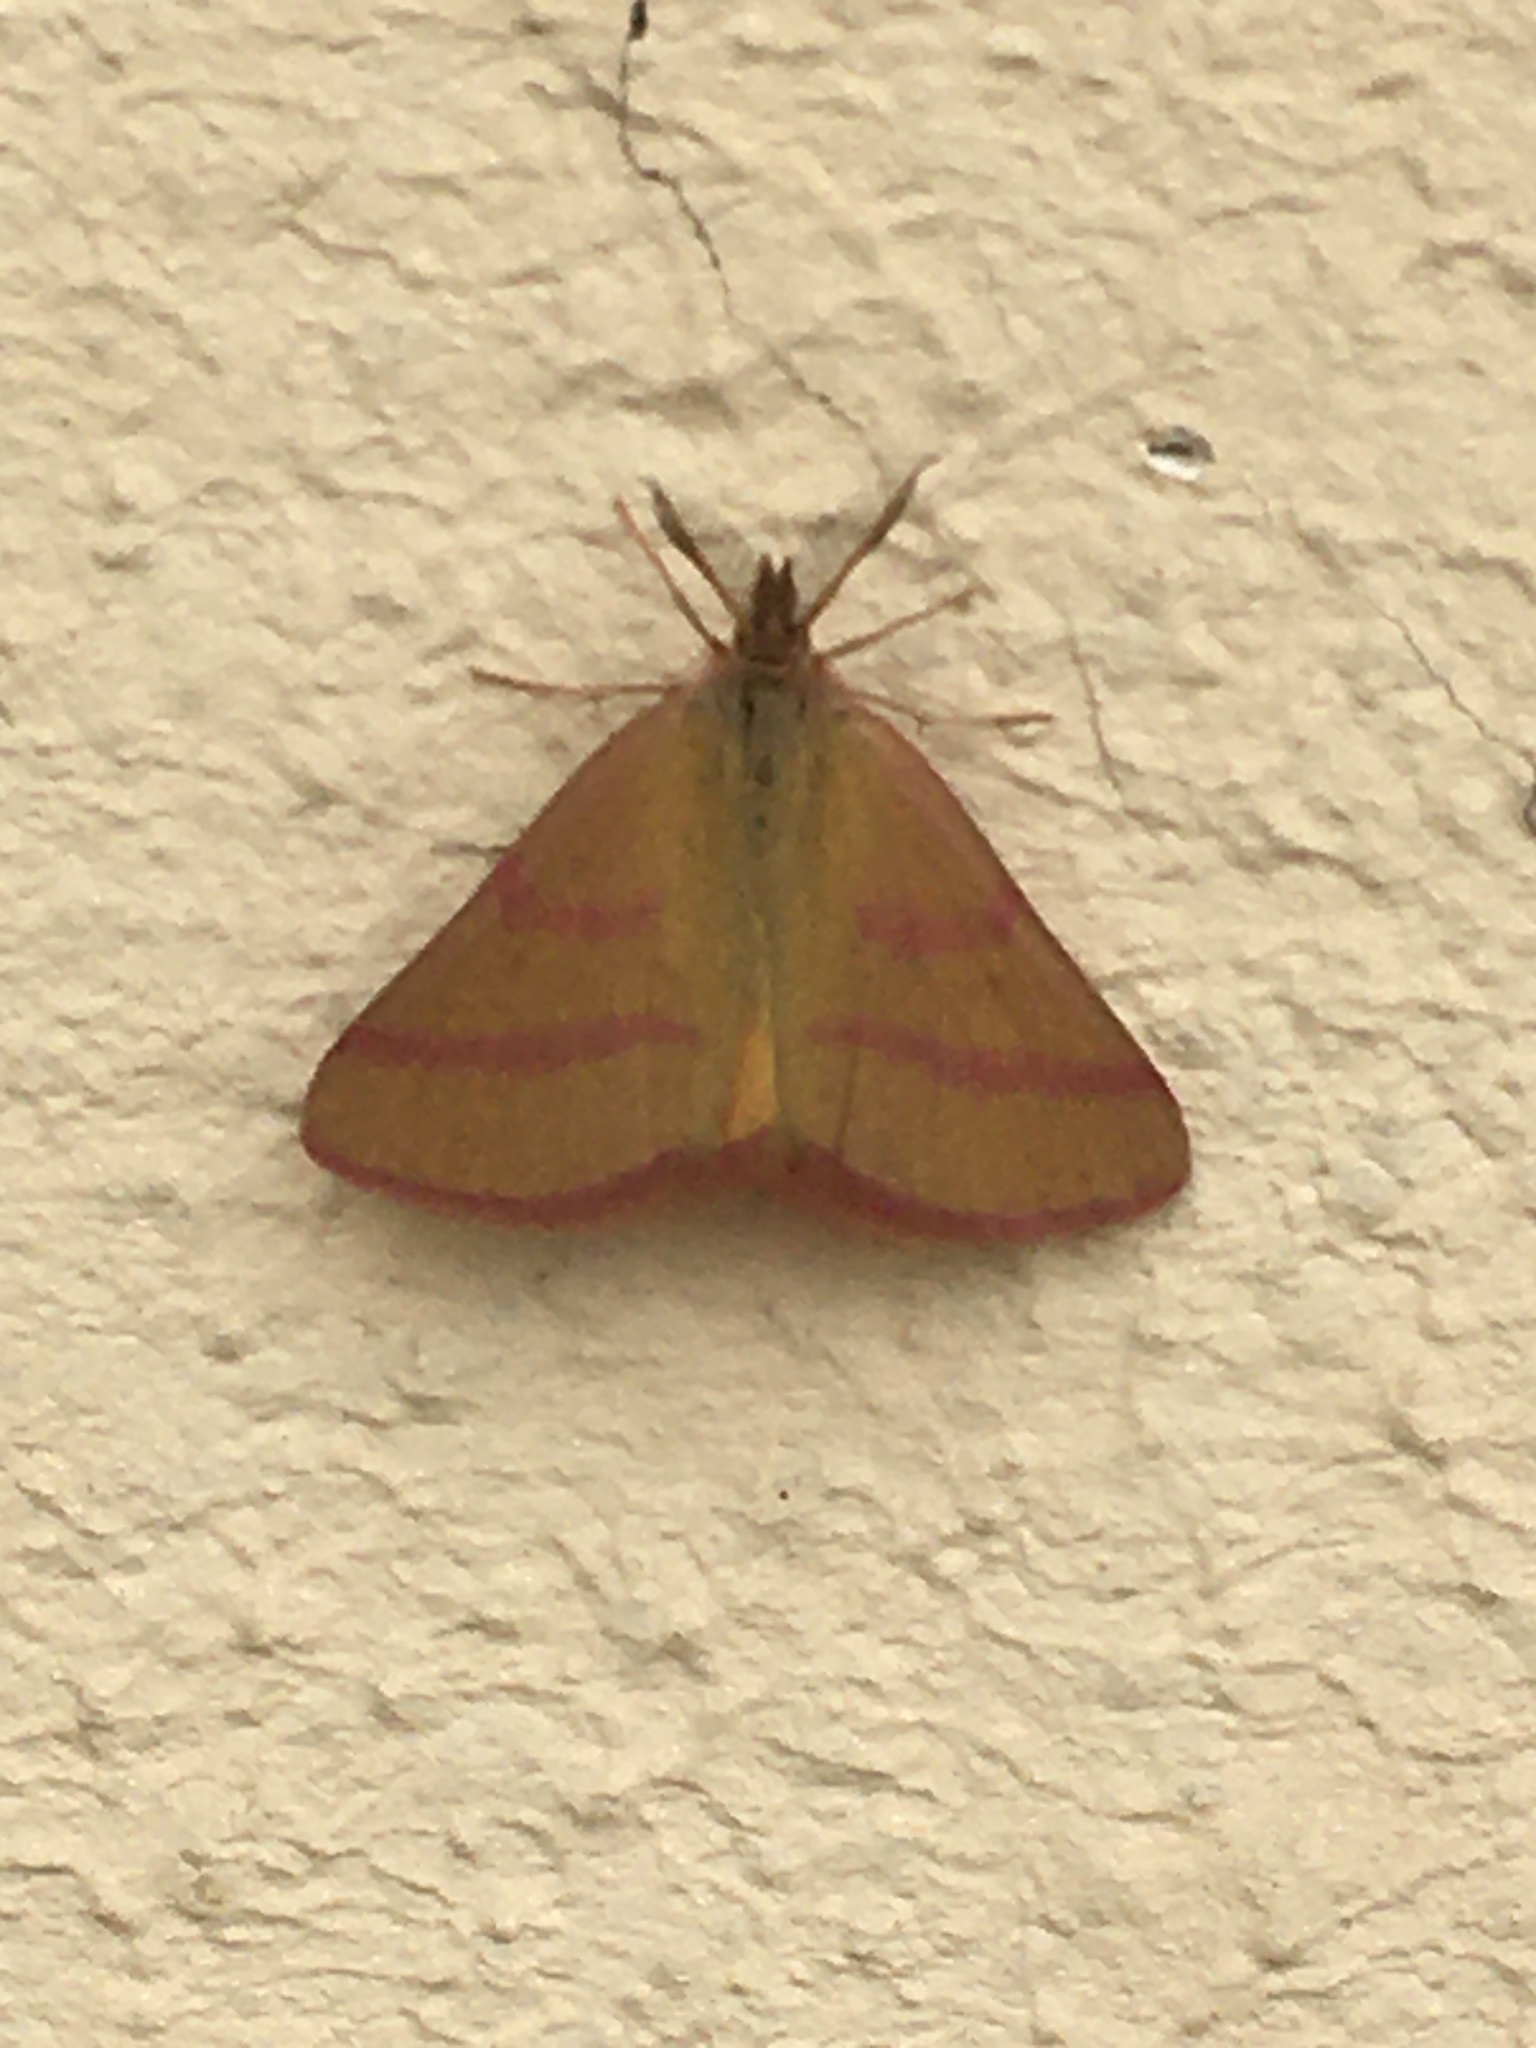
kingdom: Animalia
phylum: Arthropoda
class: Insecta
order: Lepidoptera
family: Geometridae
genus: Lythria
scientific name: Lythria purpuraria
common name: Purple-barred yellow
